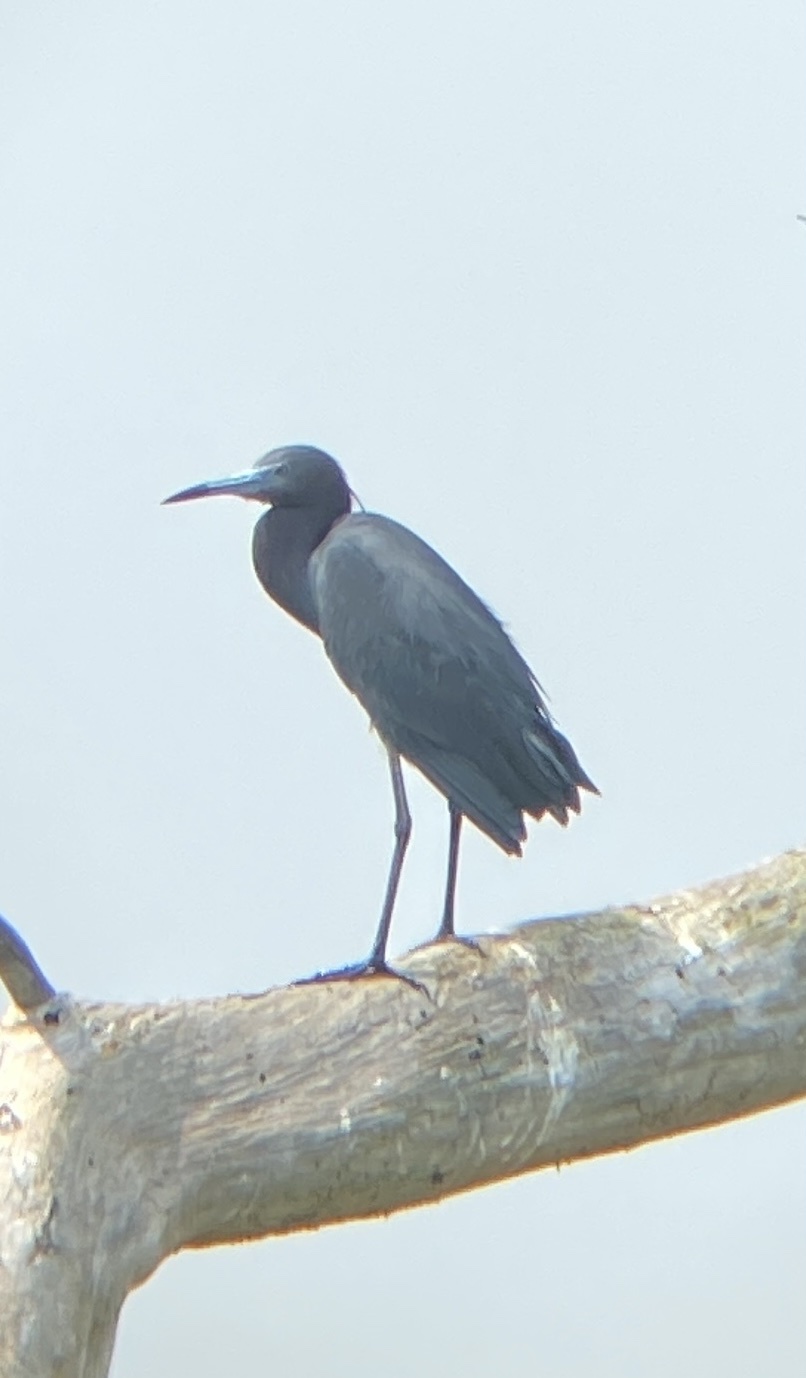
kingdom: Animalia
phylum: Chordata
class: Aves
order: Pelecaniformes
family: Ardeidae
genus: Egretta
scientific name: Egretta caerulea
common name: Little blue heron
